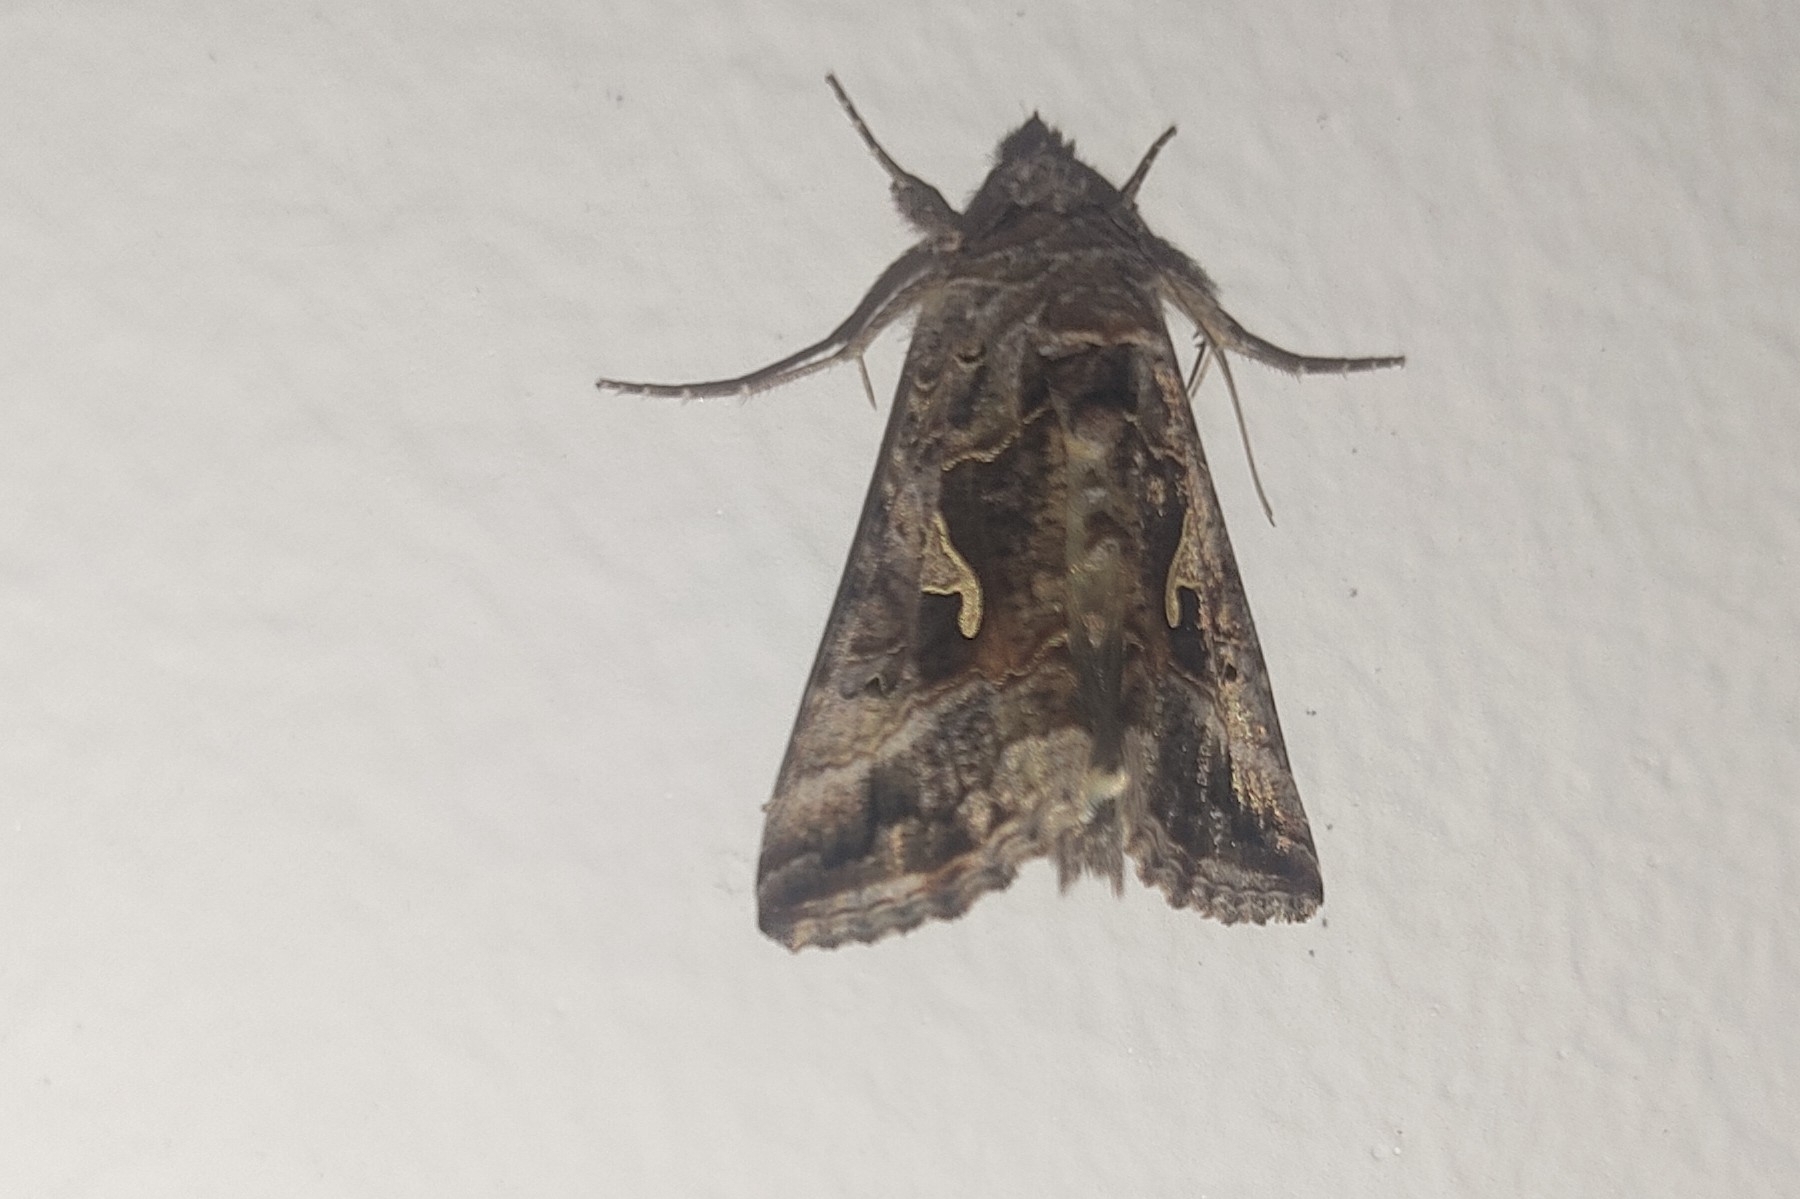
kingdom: Animalia
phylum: Arthropoda
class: Insecta
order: Lepidoptera
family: Noctuidae
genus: Autographa
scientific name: Autographa gamma
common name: Silver y
